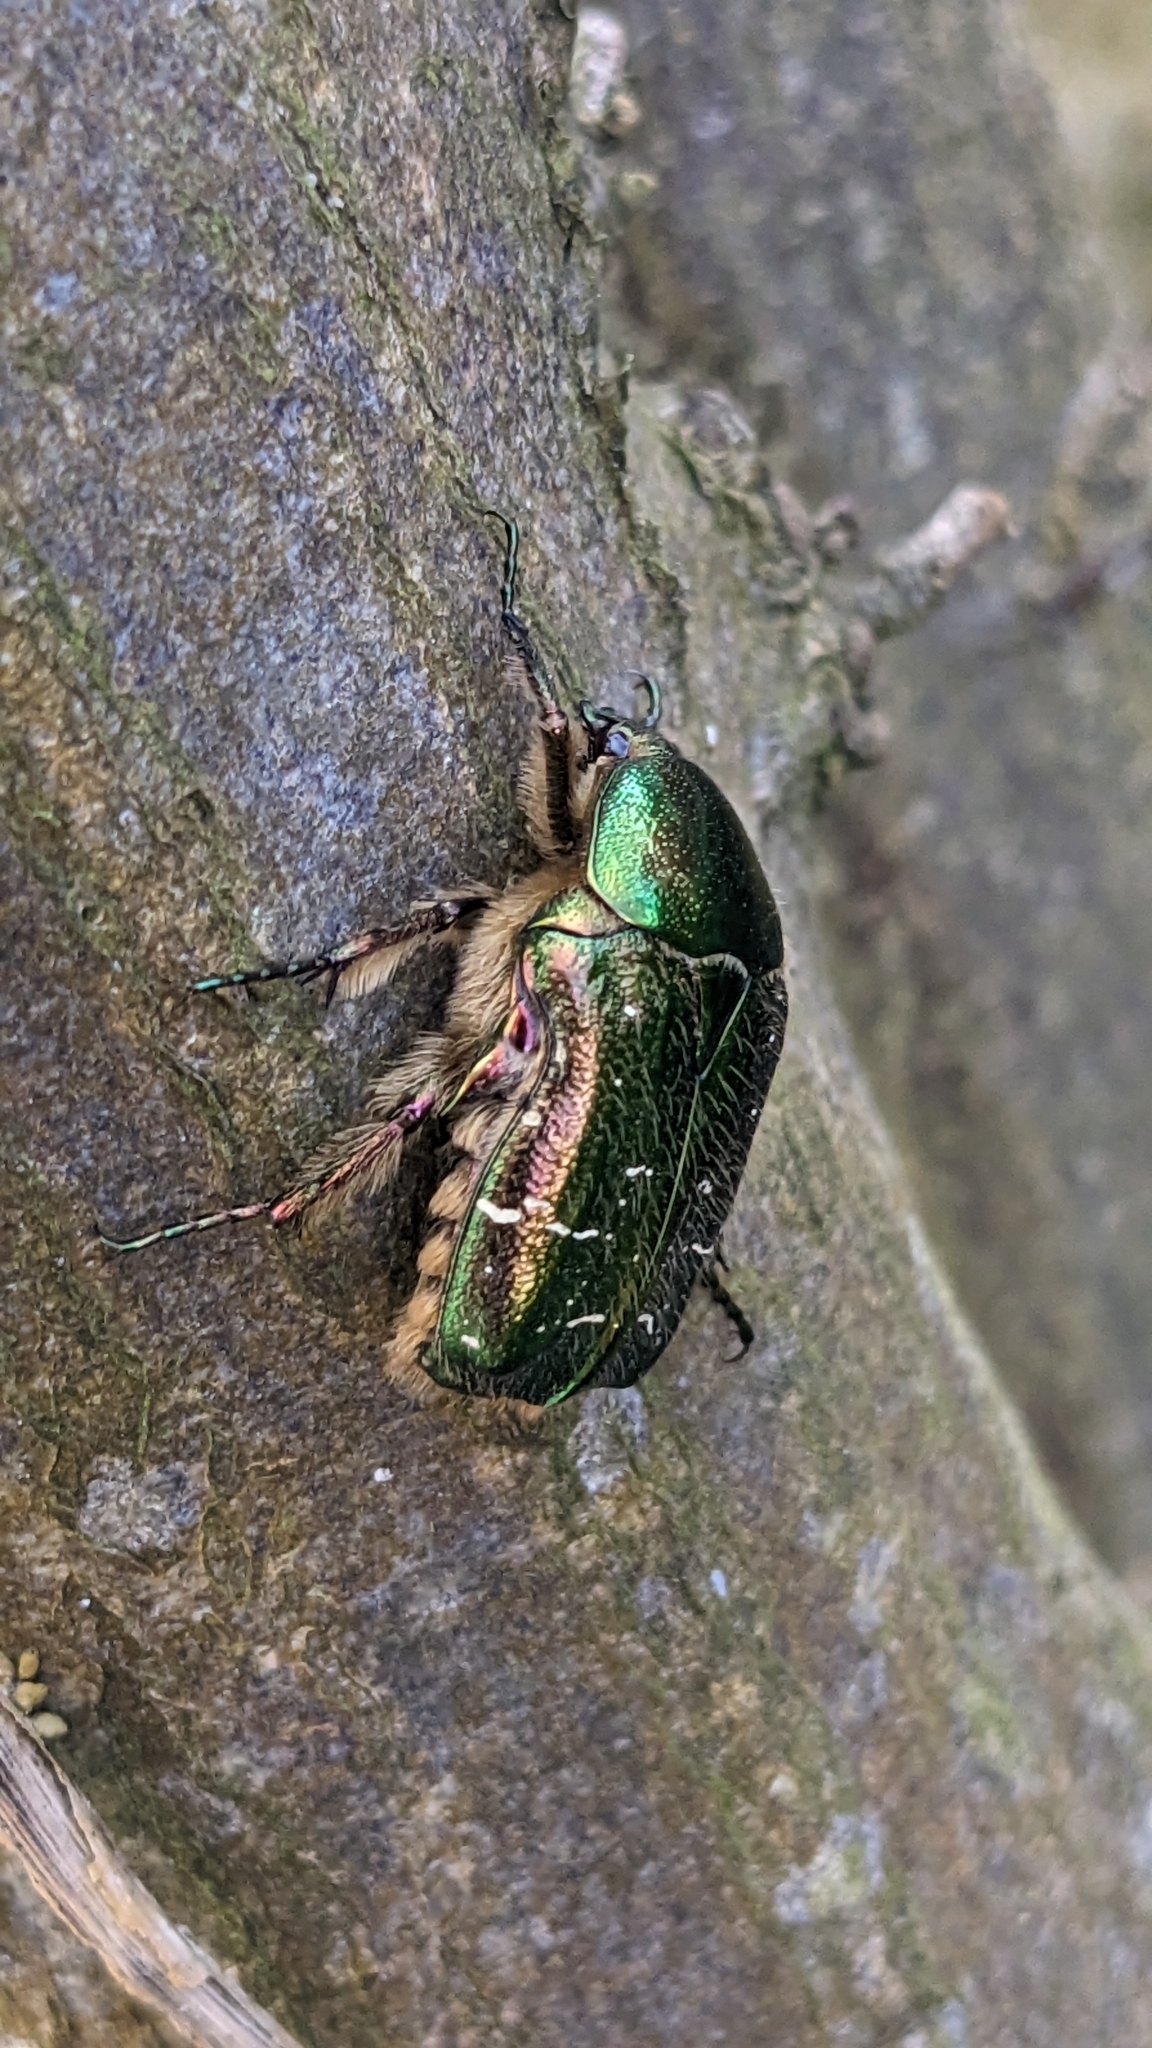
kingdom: Animalia
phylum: Arthropoda
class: Insecta
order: Coleoptera
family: Scarabaeidae
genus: Cetonia
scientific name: Cetonia aurata
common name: Rose chafer
